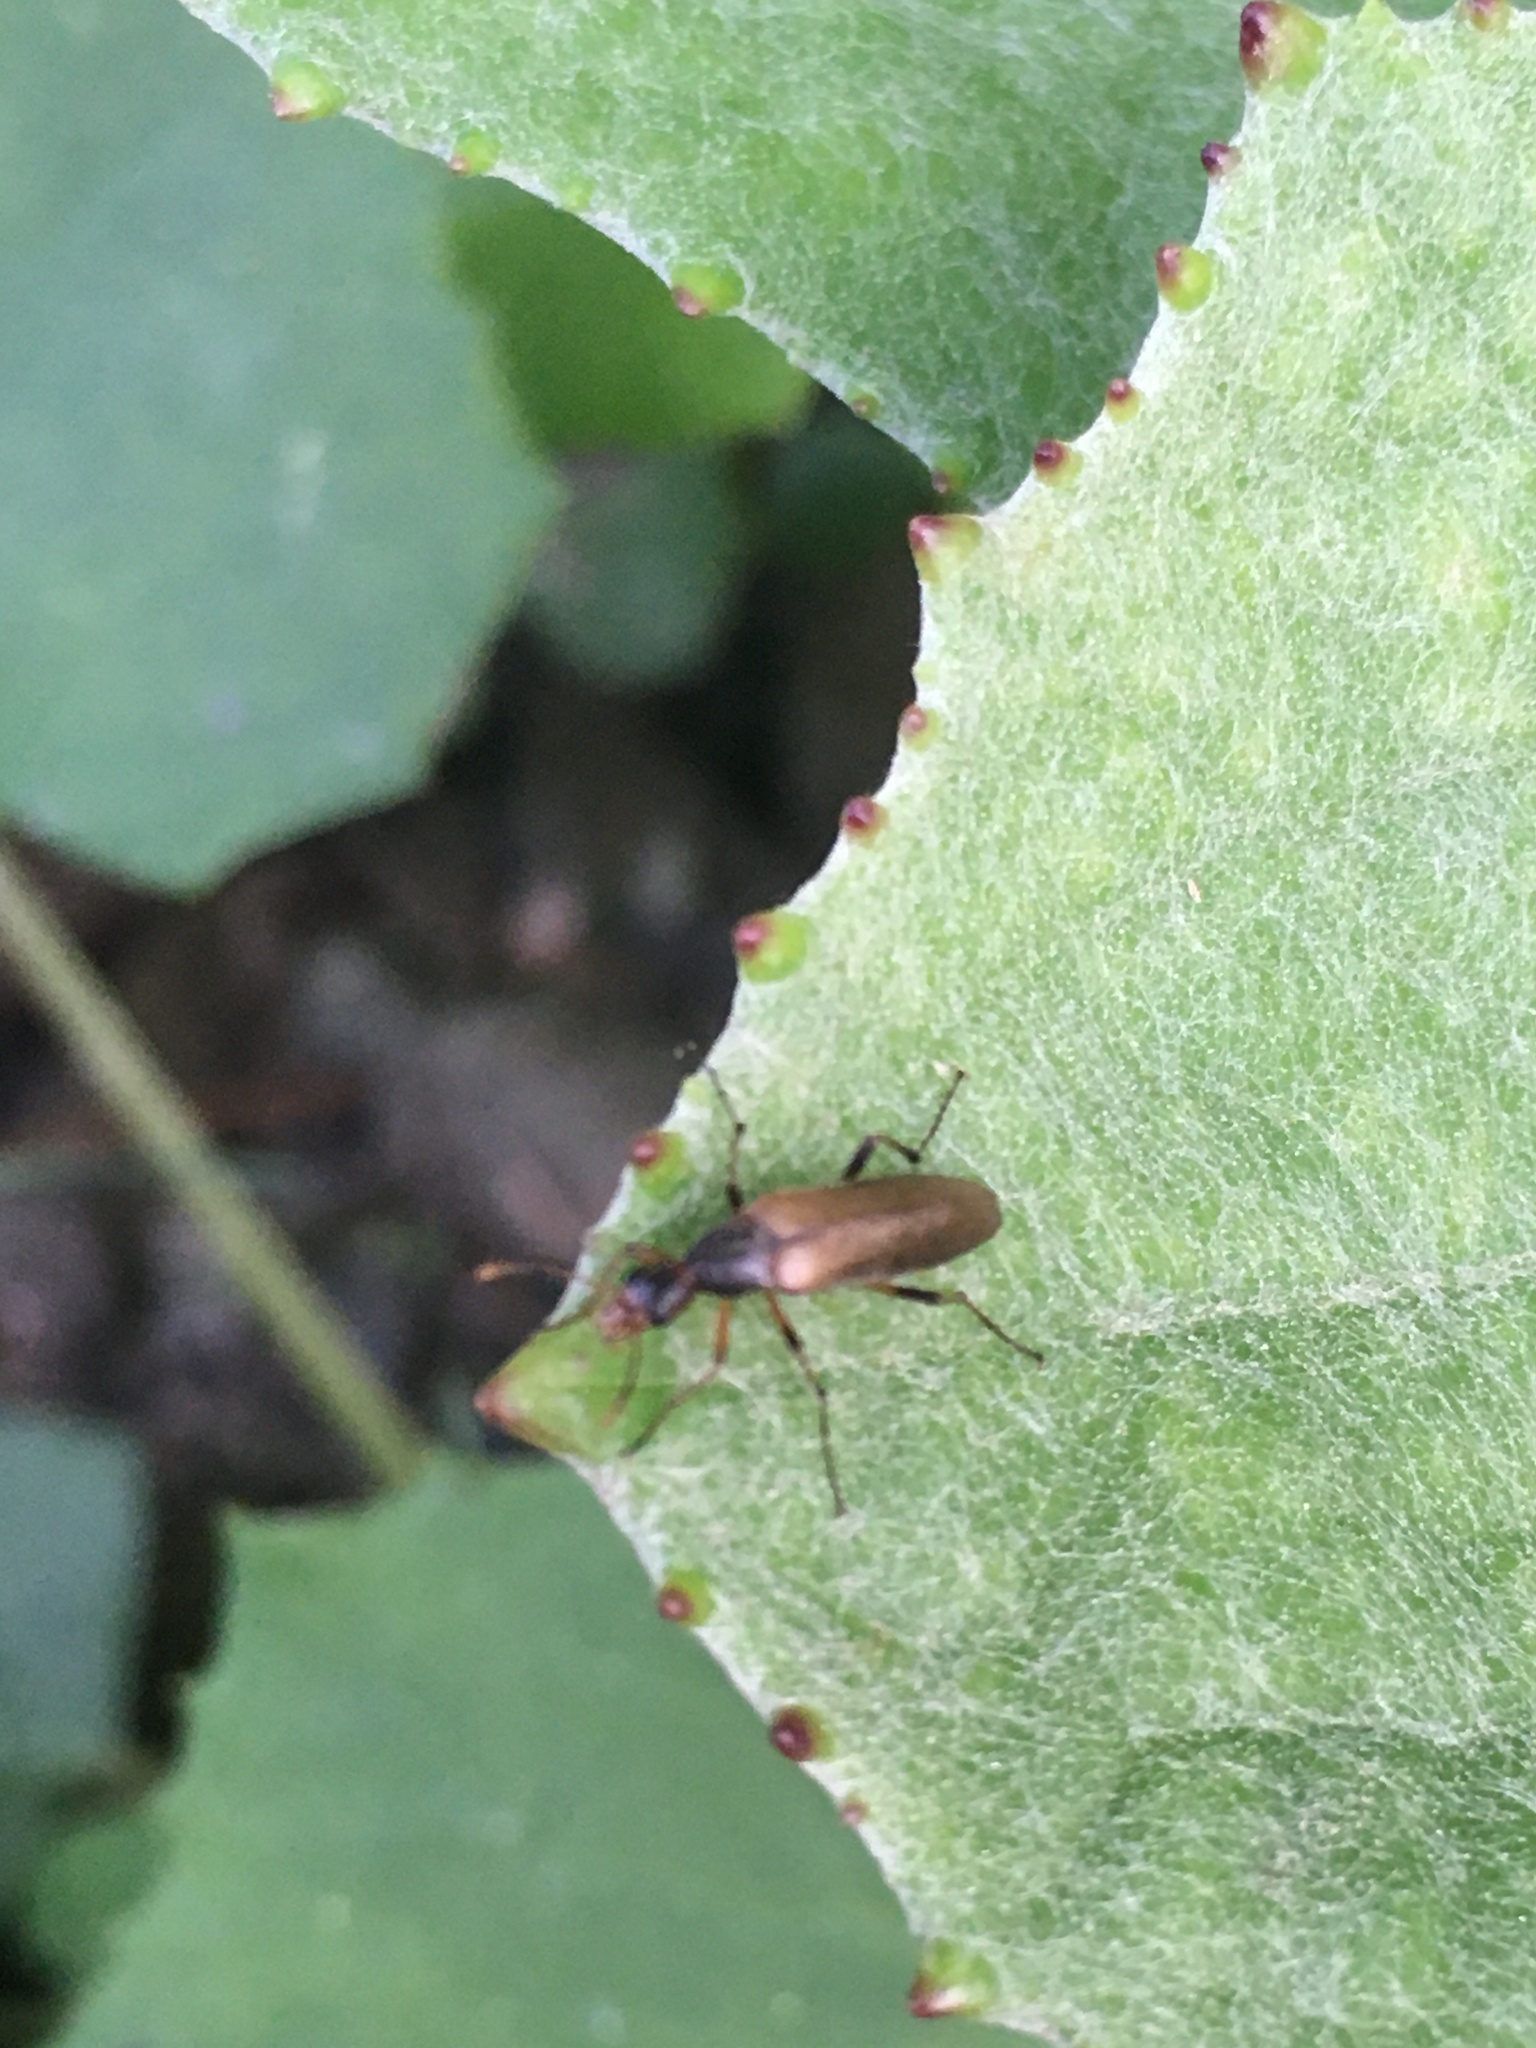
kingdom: Animalia
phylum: Arthropoda
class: Insecta
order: Coleoptera
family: Stenotrachelidae
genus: Cephaloon
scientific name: Cephaloon lepturides
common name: False leptura beetle
